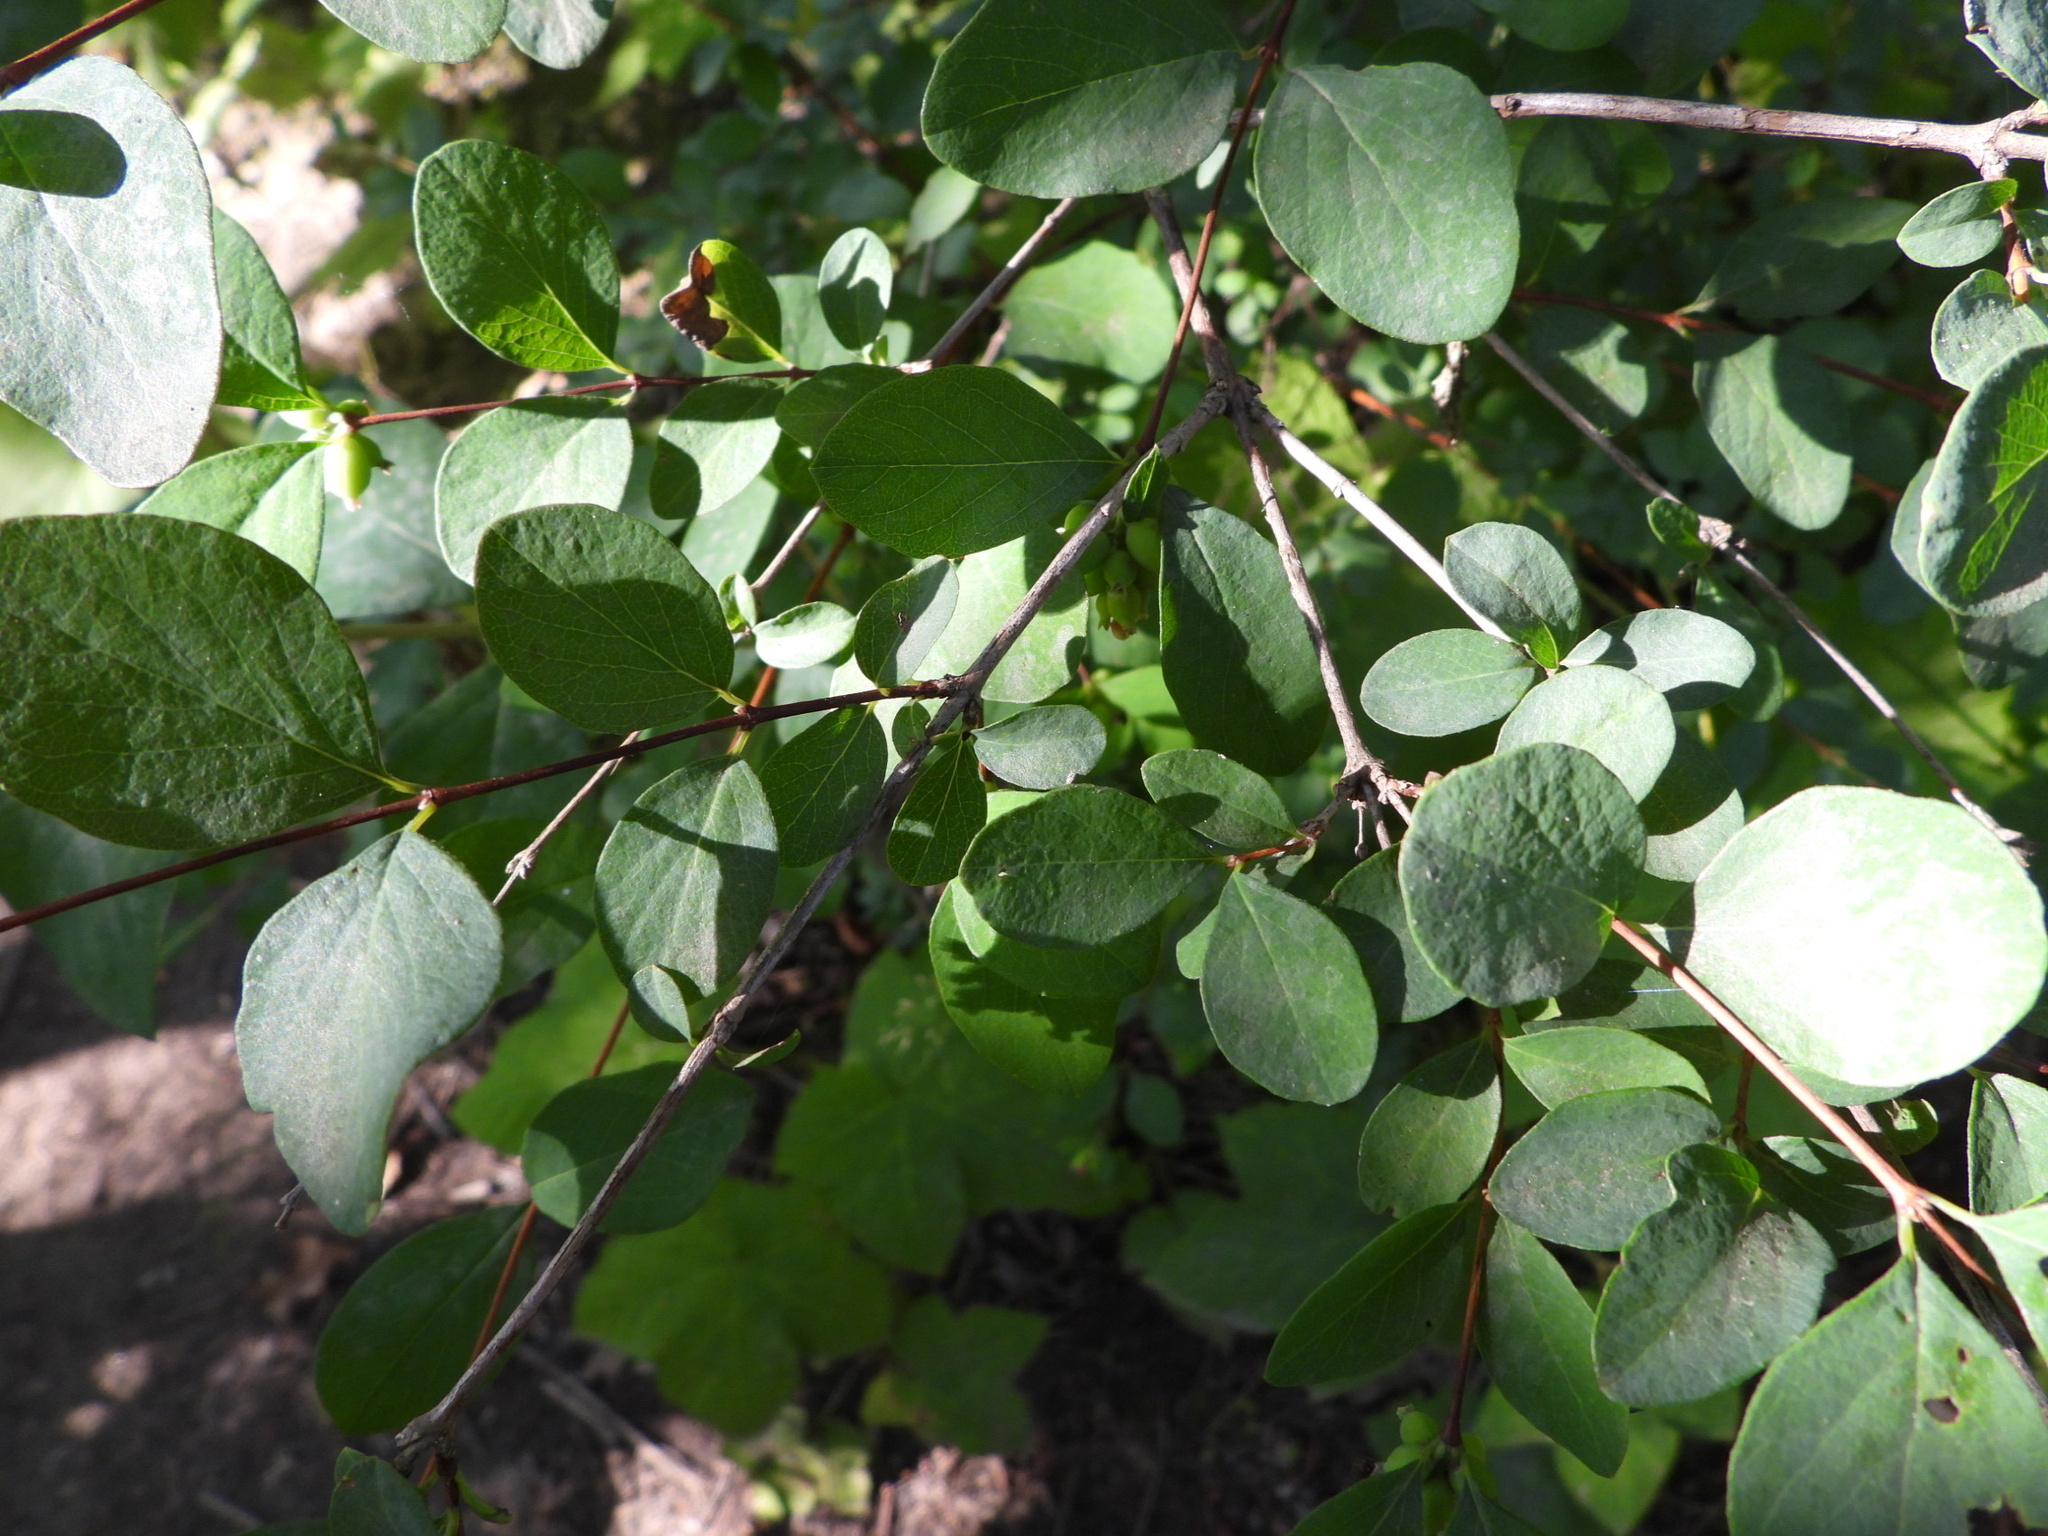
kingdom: Plantae
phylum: Tracheophyta
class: Magnoliopsida
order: Dipsacales
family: Caprifoliaceae
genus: Symphoricarpos
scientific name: Symphoricarpos albus
